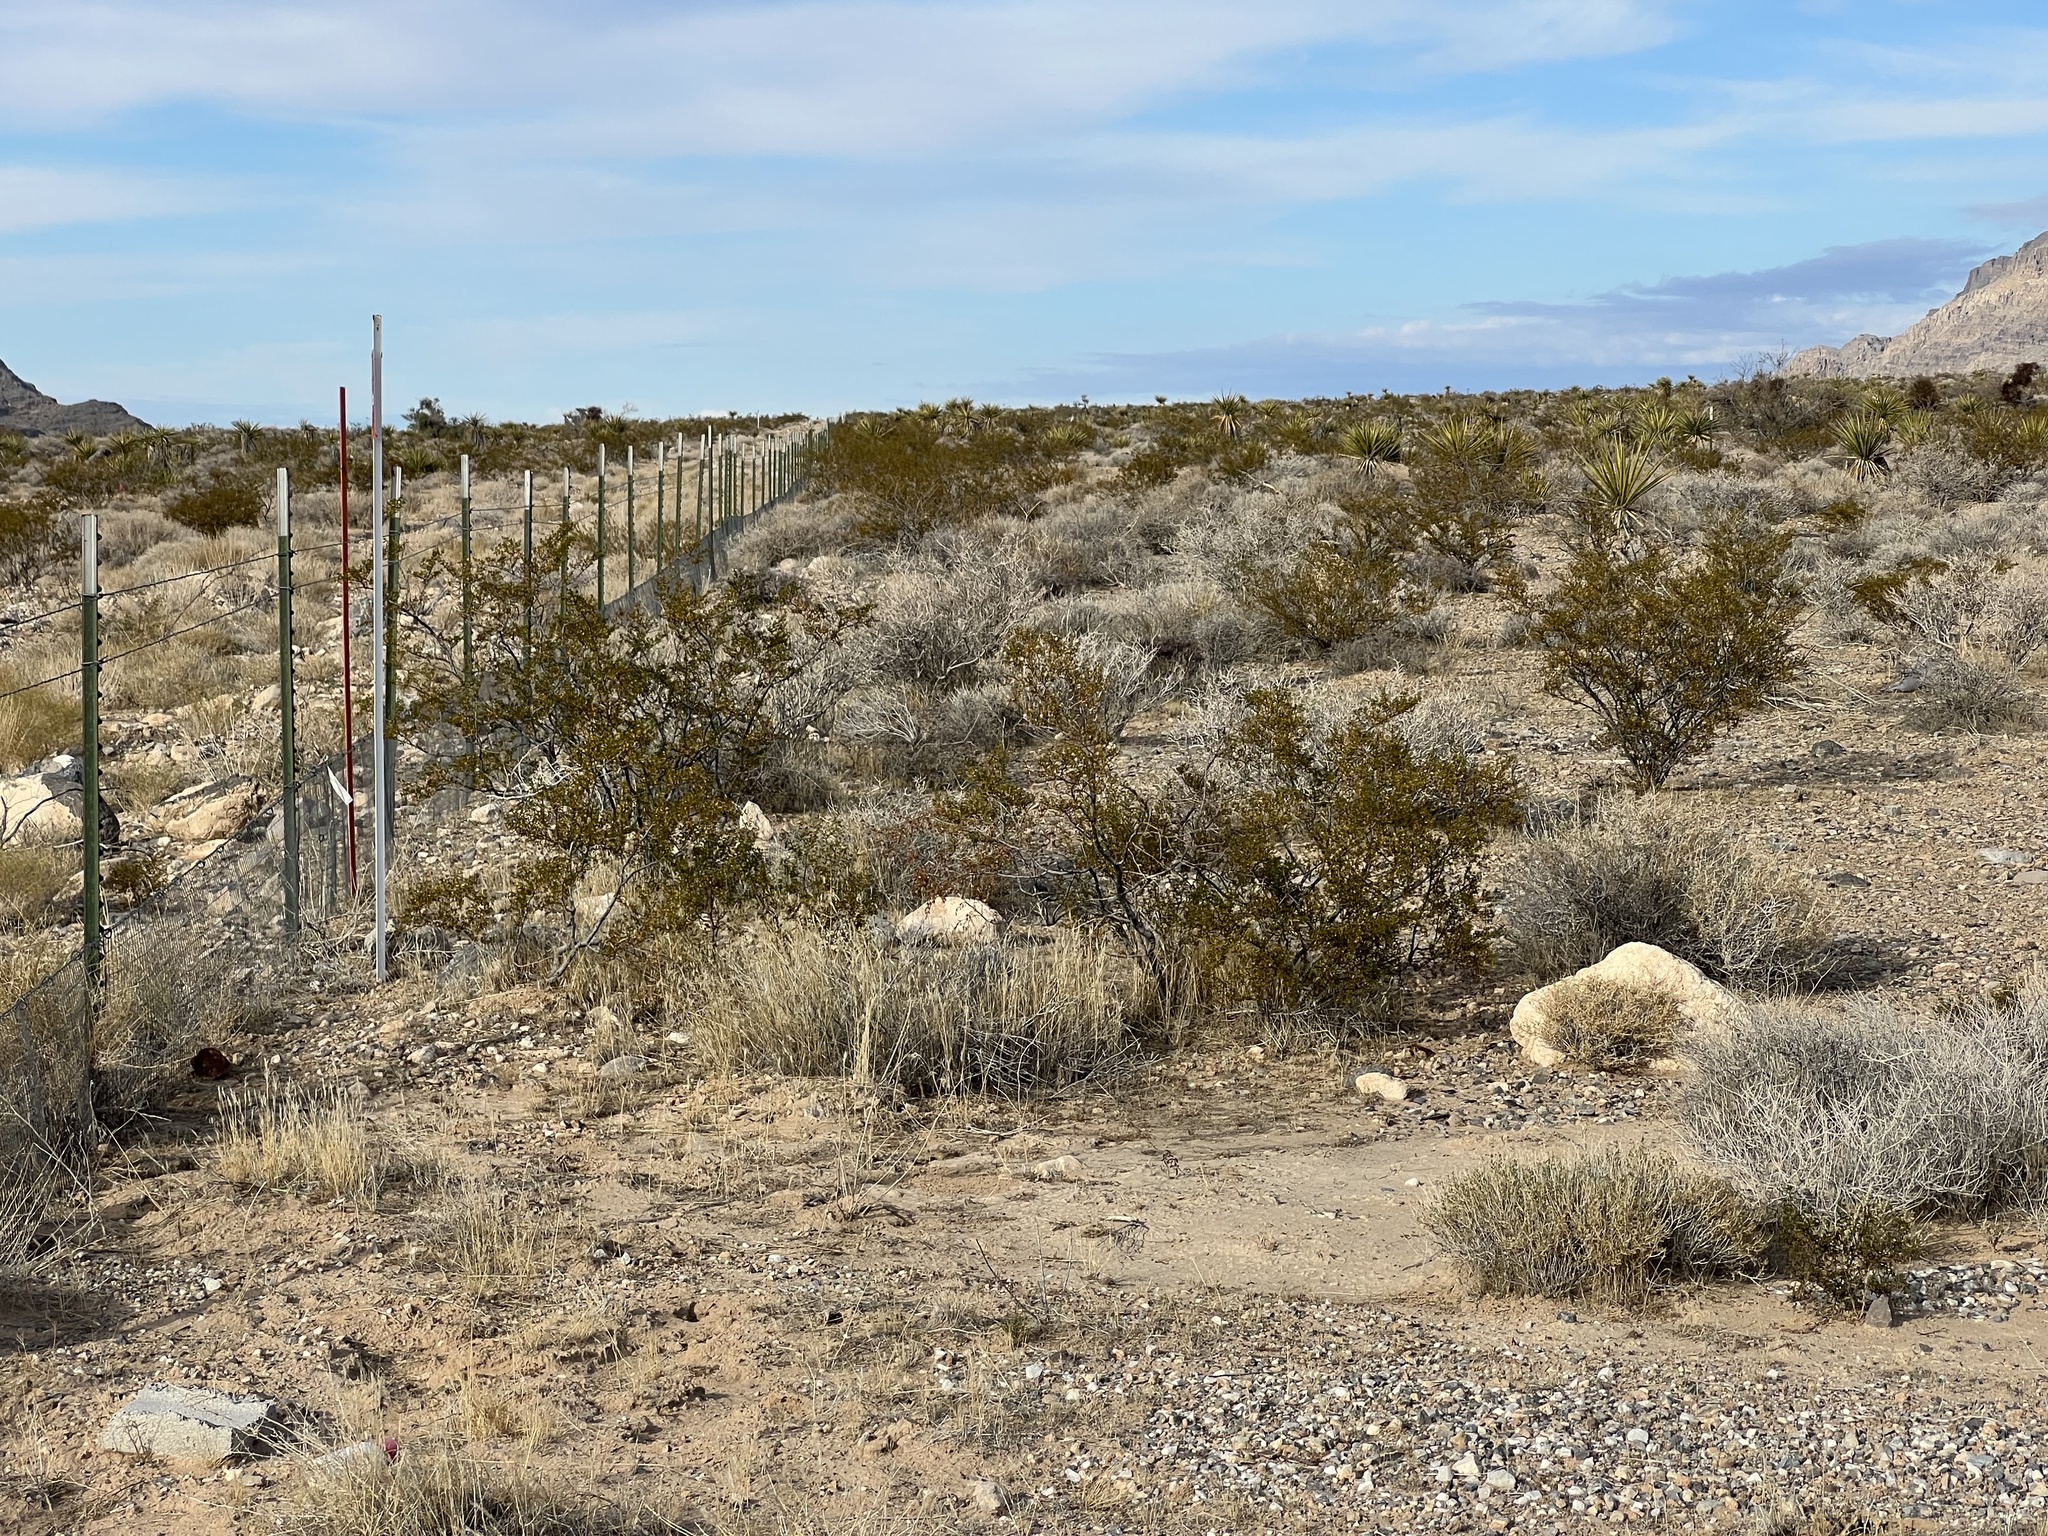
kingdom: Plantae
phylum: Tracheophyta
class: Magnoliopsida
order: Zygophyllales
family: Zygophyllaceae
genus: Larrea
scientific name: Larrea tridentata
